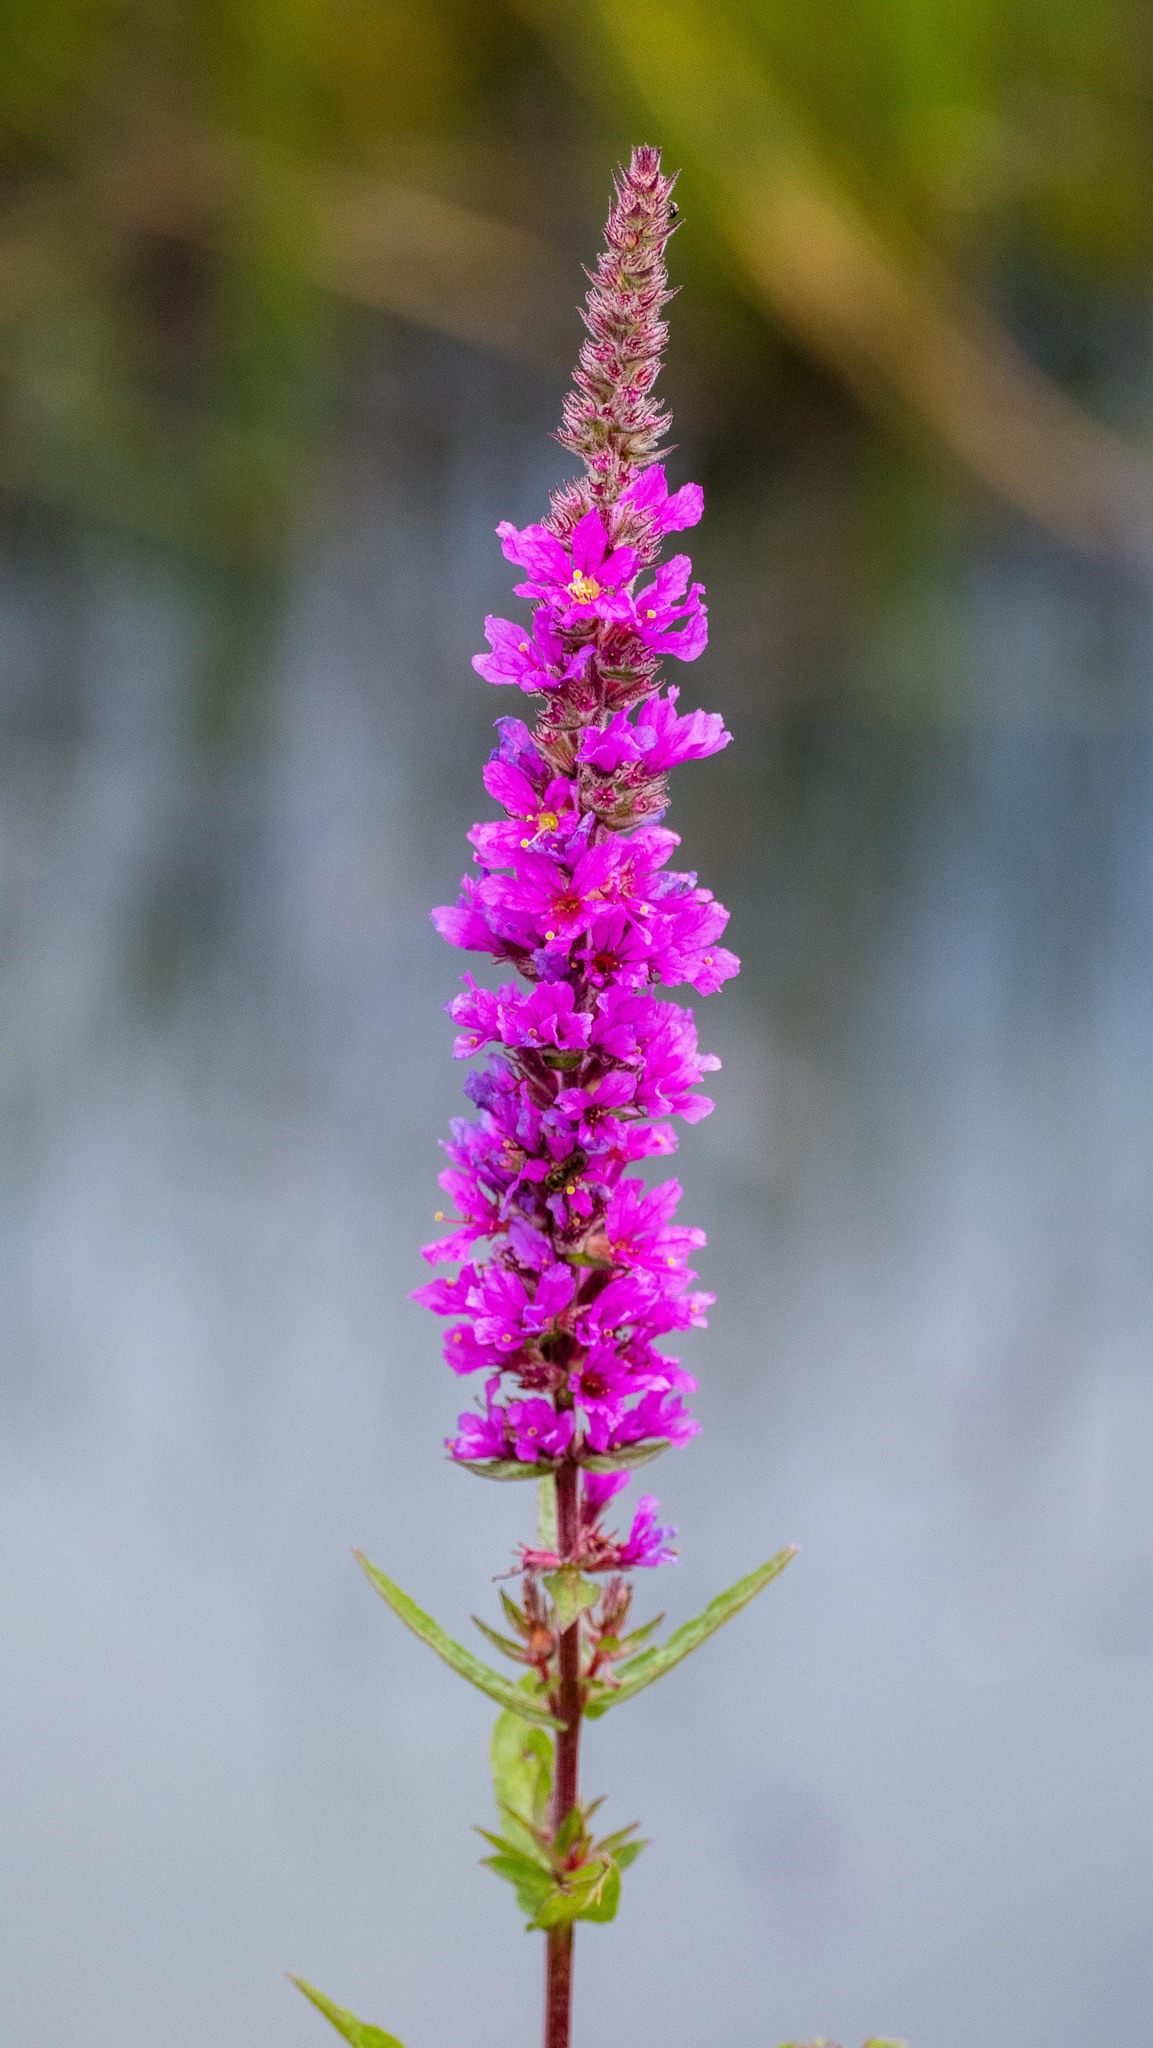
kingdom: Plantae
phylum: Tracheophyta
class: Magnoliopsida
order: Myrtales
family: Lythraceae
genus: Lythrum
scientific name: Lythrum salicaria
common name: Purple loosestrife
